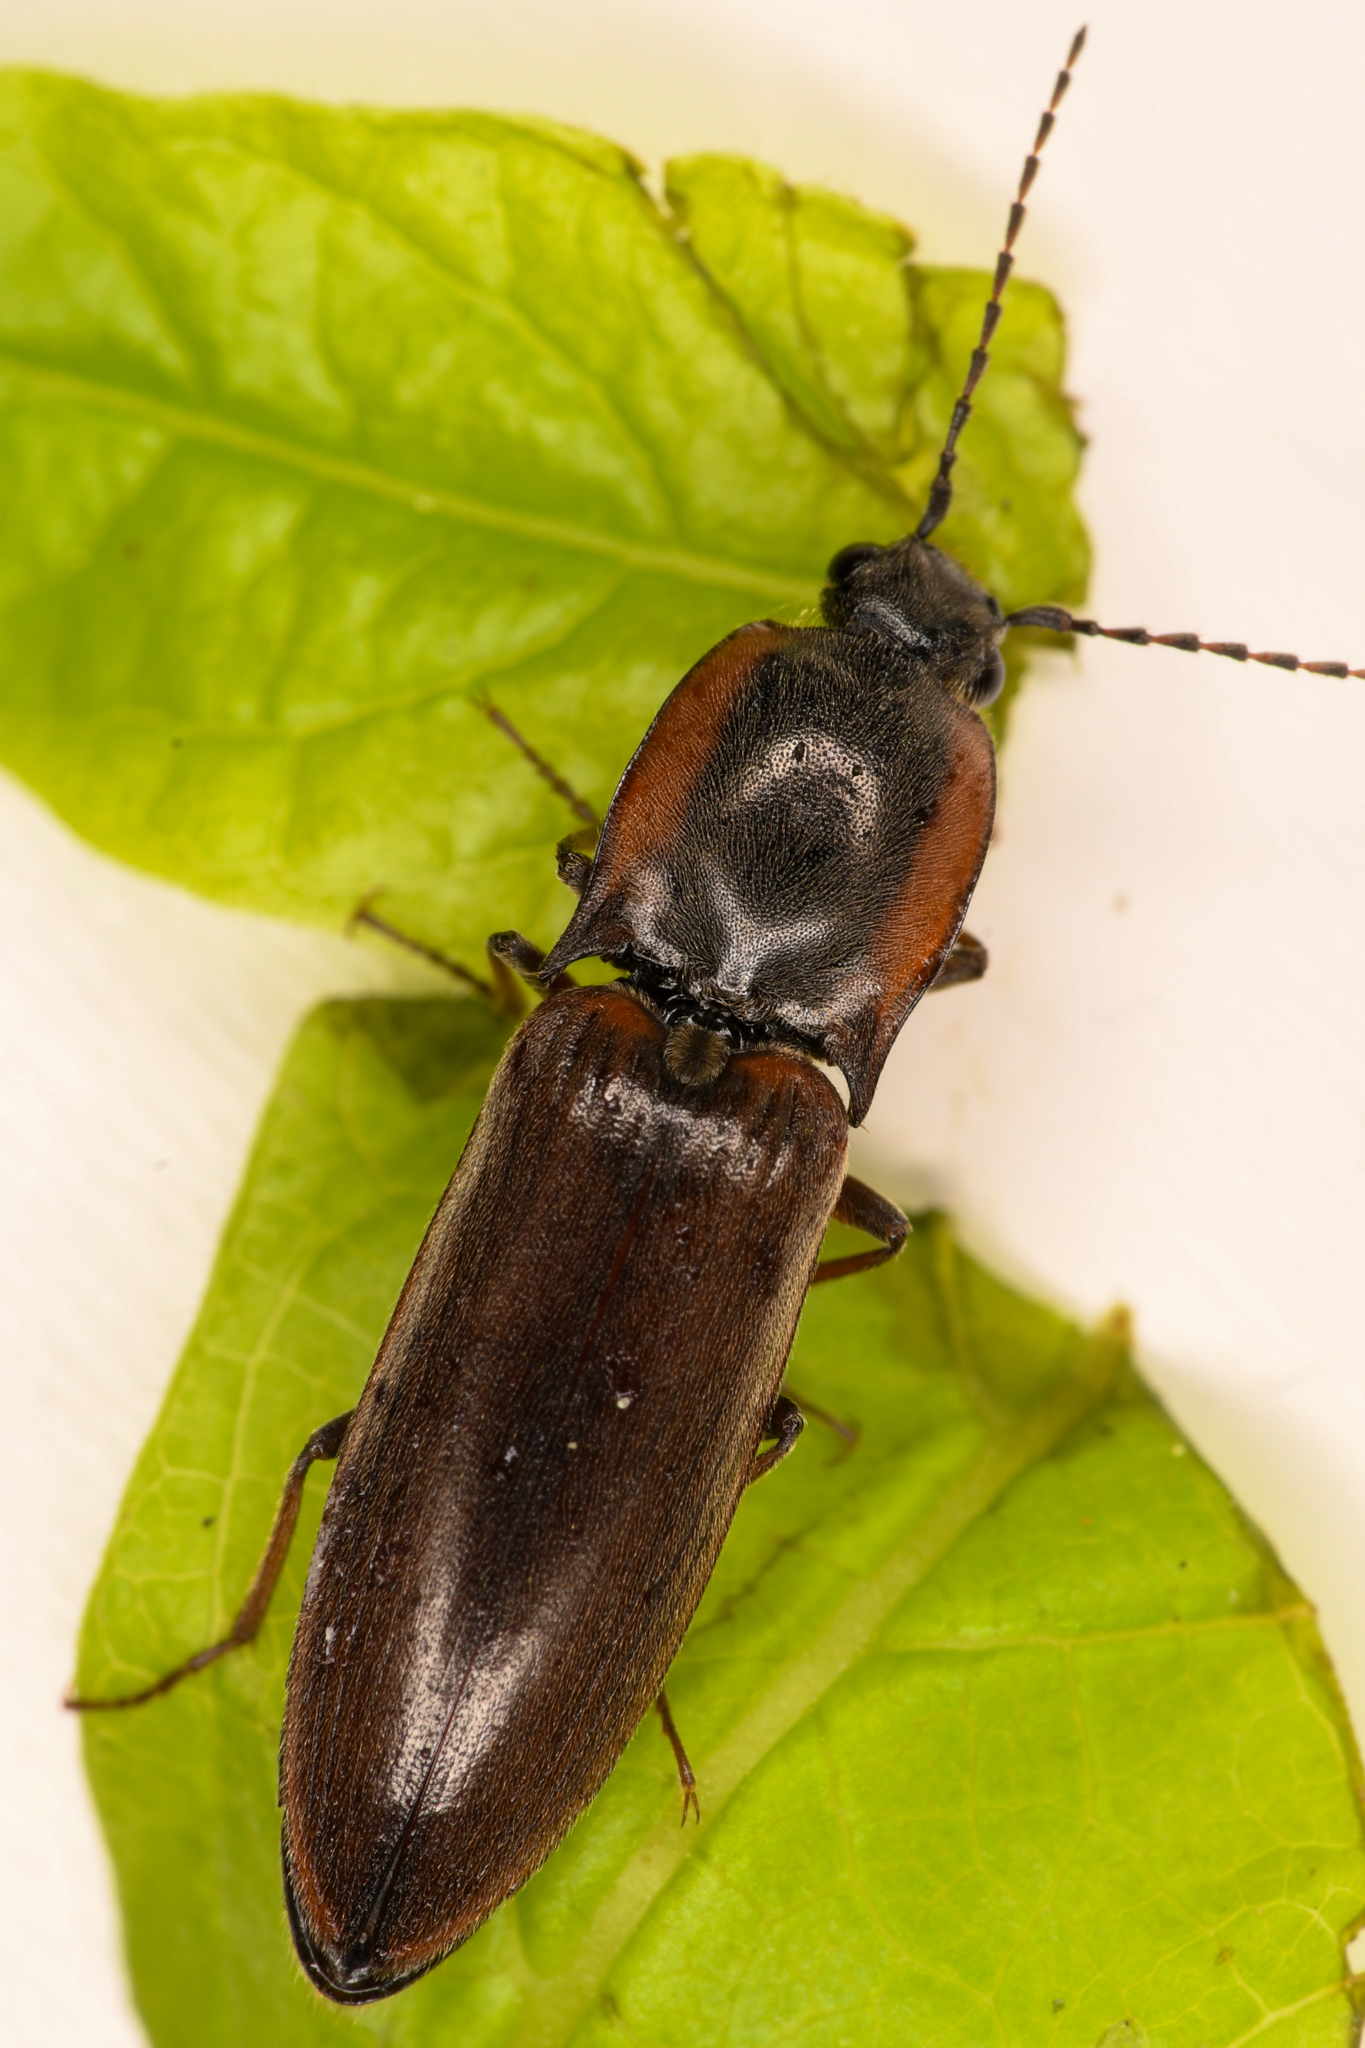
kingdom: Animalia
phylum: Arthropoda
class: Insecta
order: Coleoptera
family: Elateridae
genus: Acteniceromorphus
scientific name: Acteniceromorphus volitans
